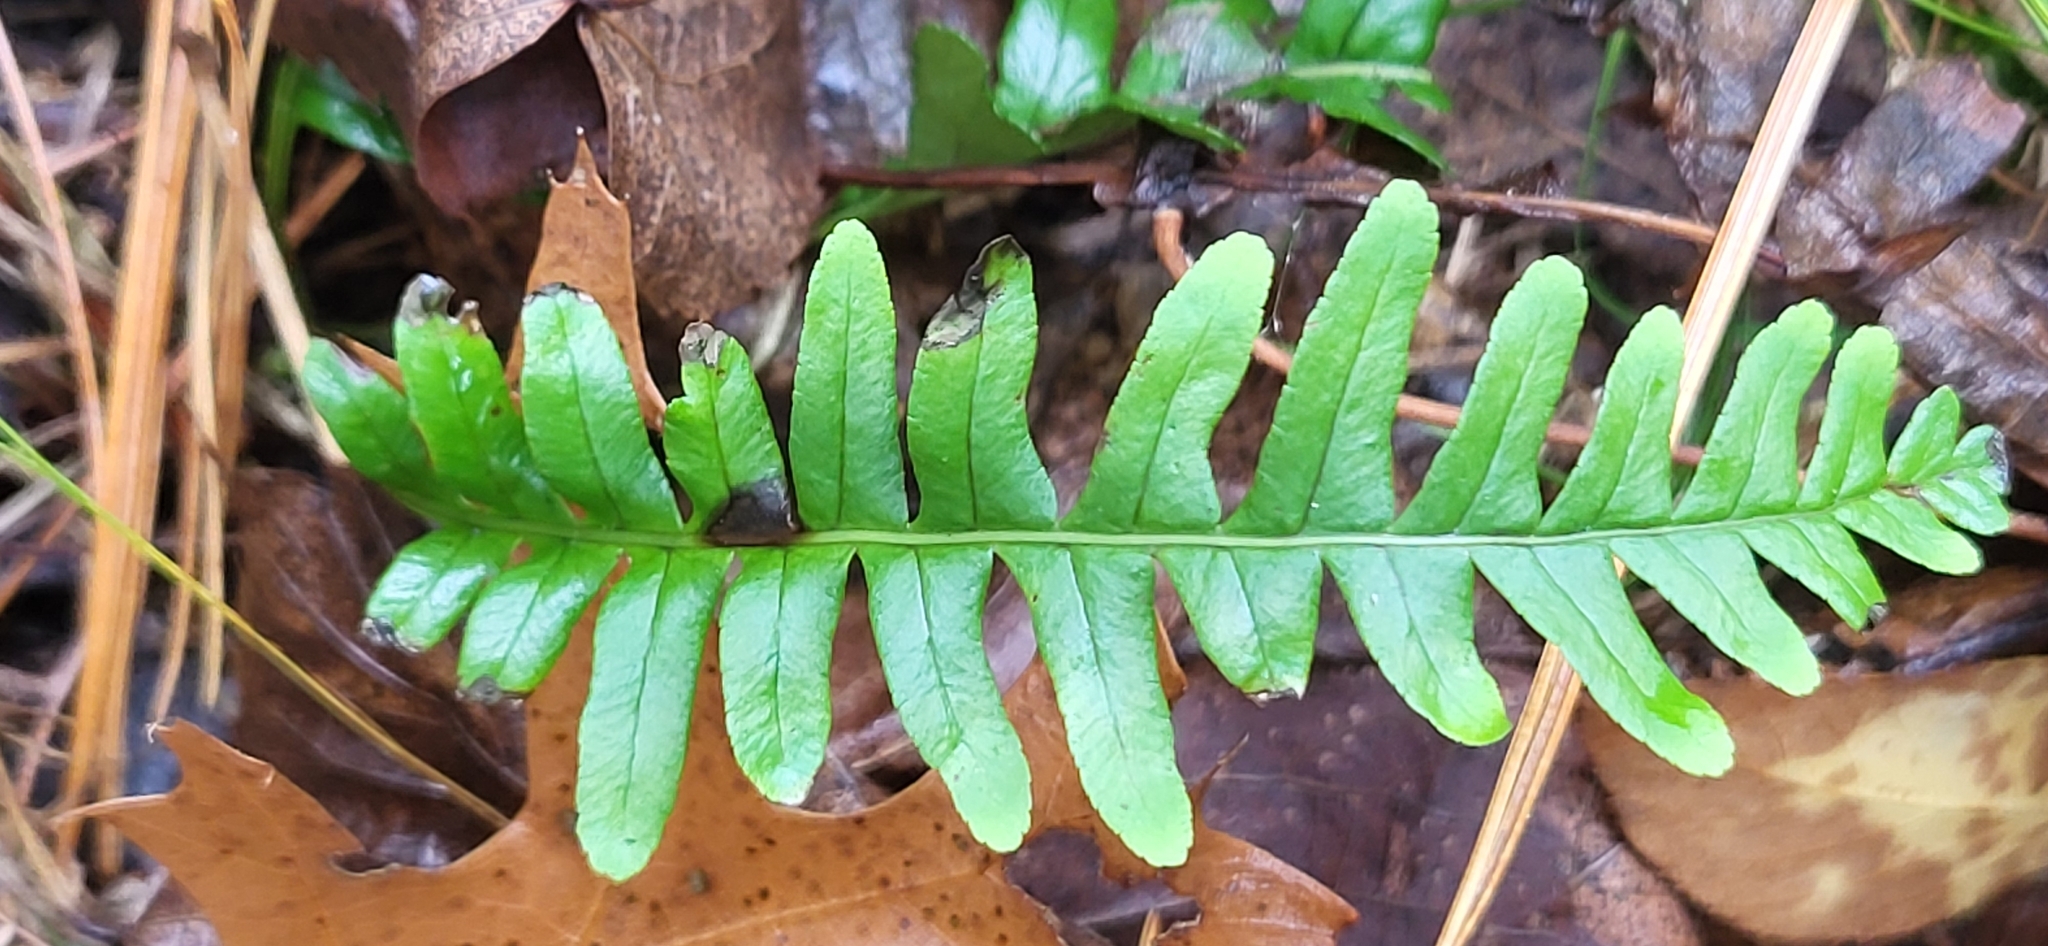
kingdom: Plantae
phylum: Tracheophyta
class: Polypodiopsida
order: Polypodiales
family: Polypodiaceae
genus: Polypodium
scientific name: Polypodium virginianum
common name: American wall fern
